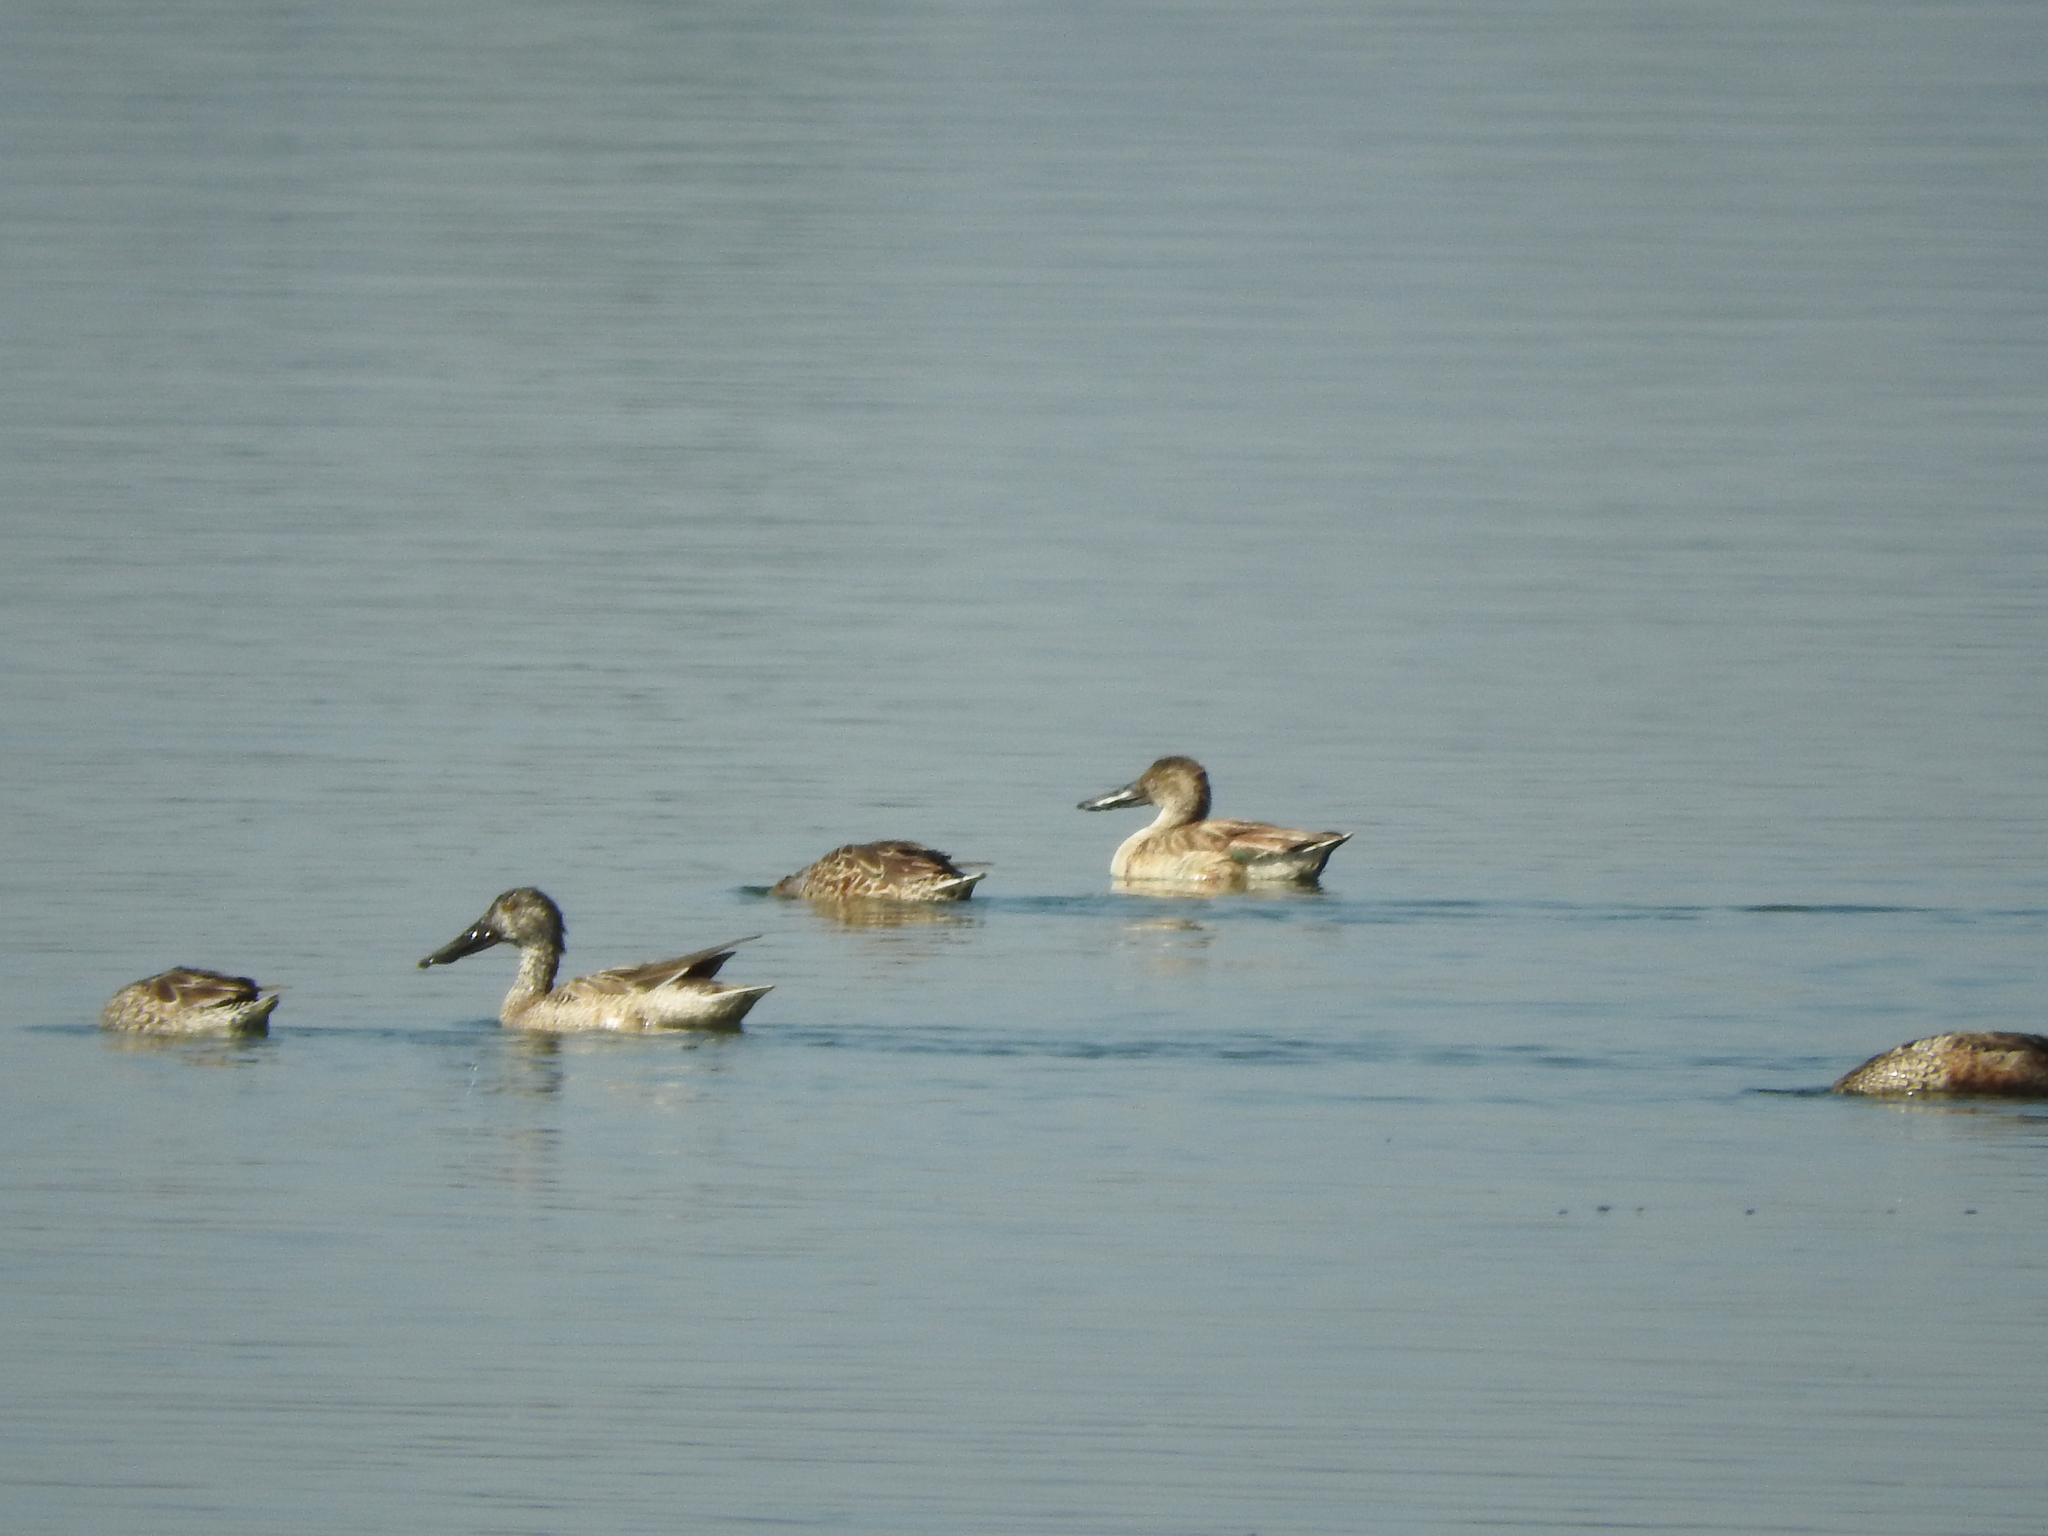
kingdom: Animalia
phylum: Chordata
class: Aves
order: Anseriformes
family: Anatidae
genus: Spatula
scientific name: Spatula clypeata
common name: Northern shoveler
